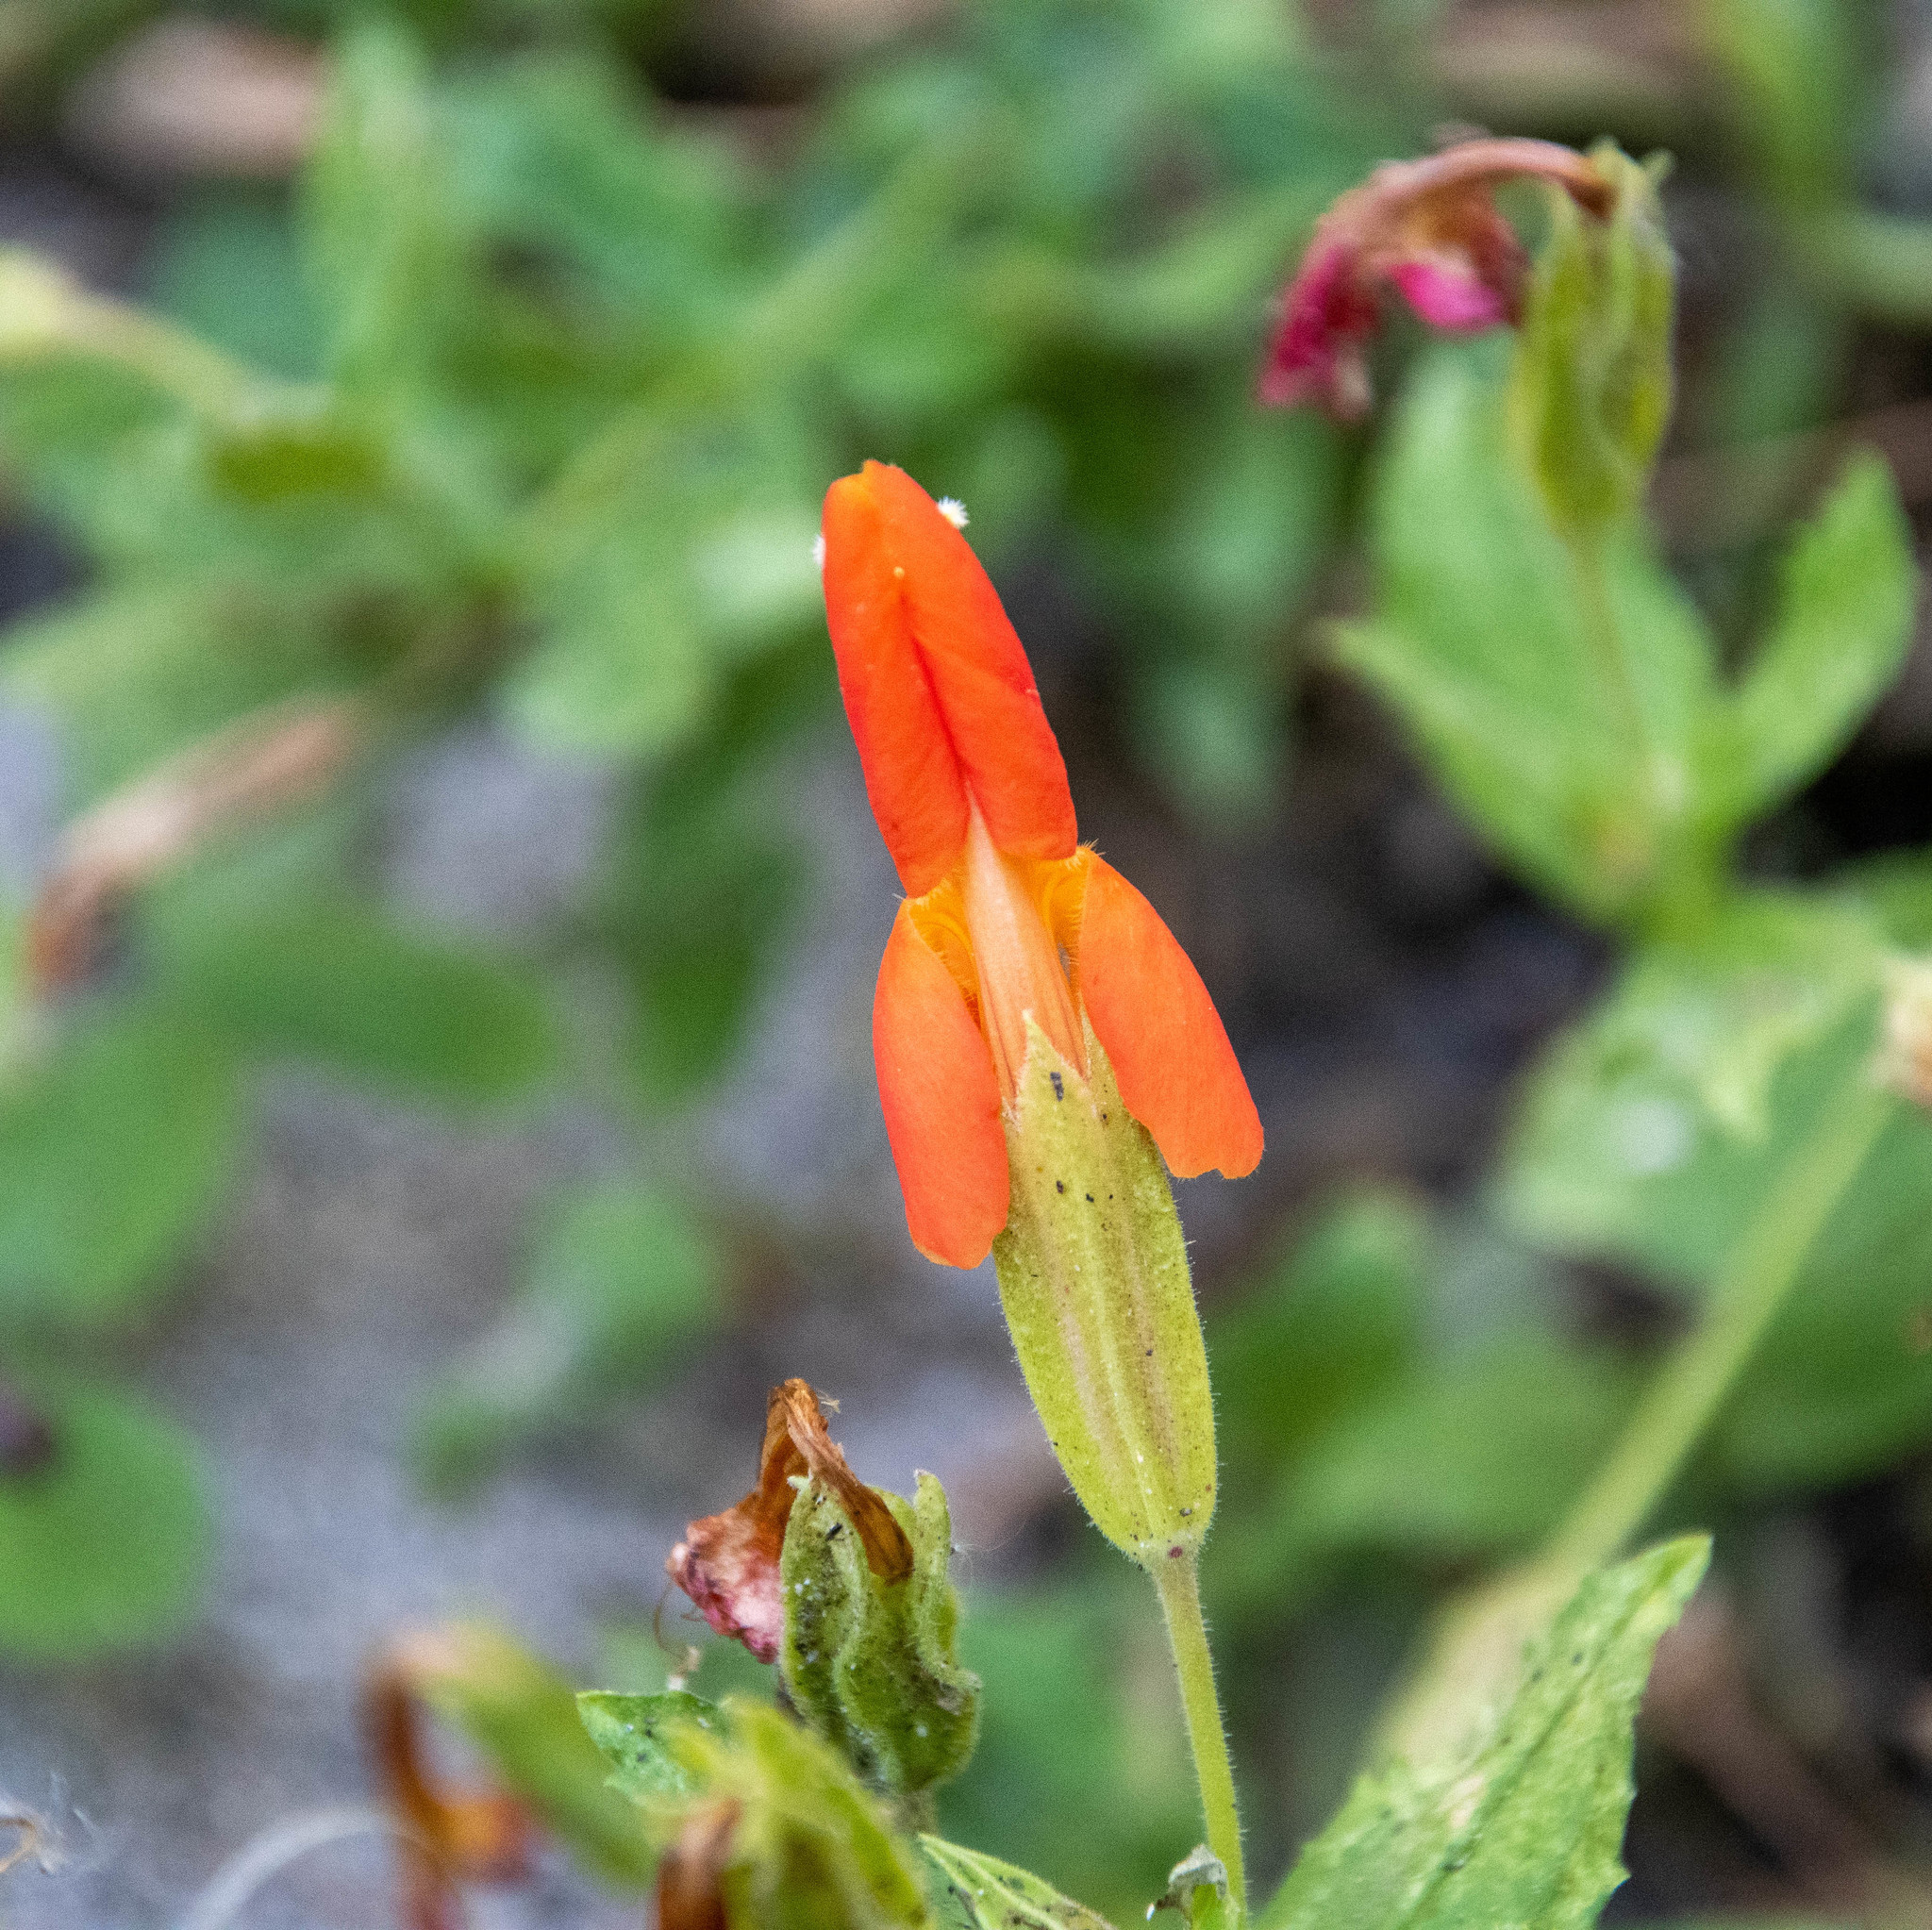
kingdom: Plantae
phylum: Tracheophyta
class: Magnoliopsida
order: Lamiales
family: Phrymaceae
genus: Erythranthe
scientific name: Erythranthe cardinalis
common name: Scarlet monkey-flower
